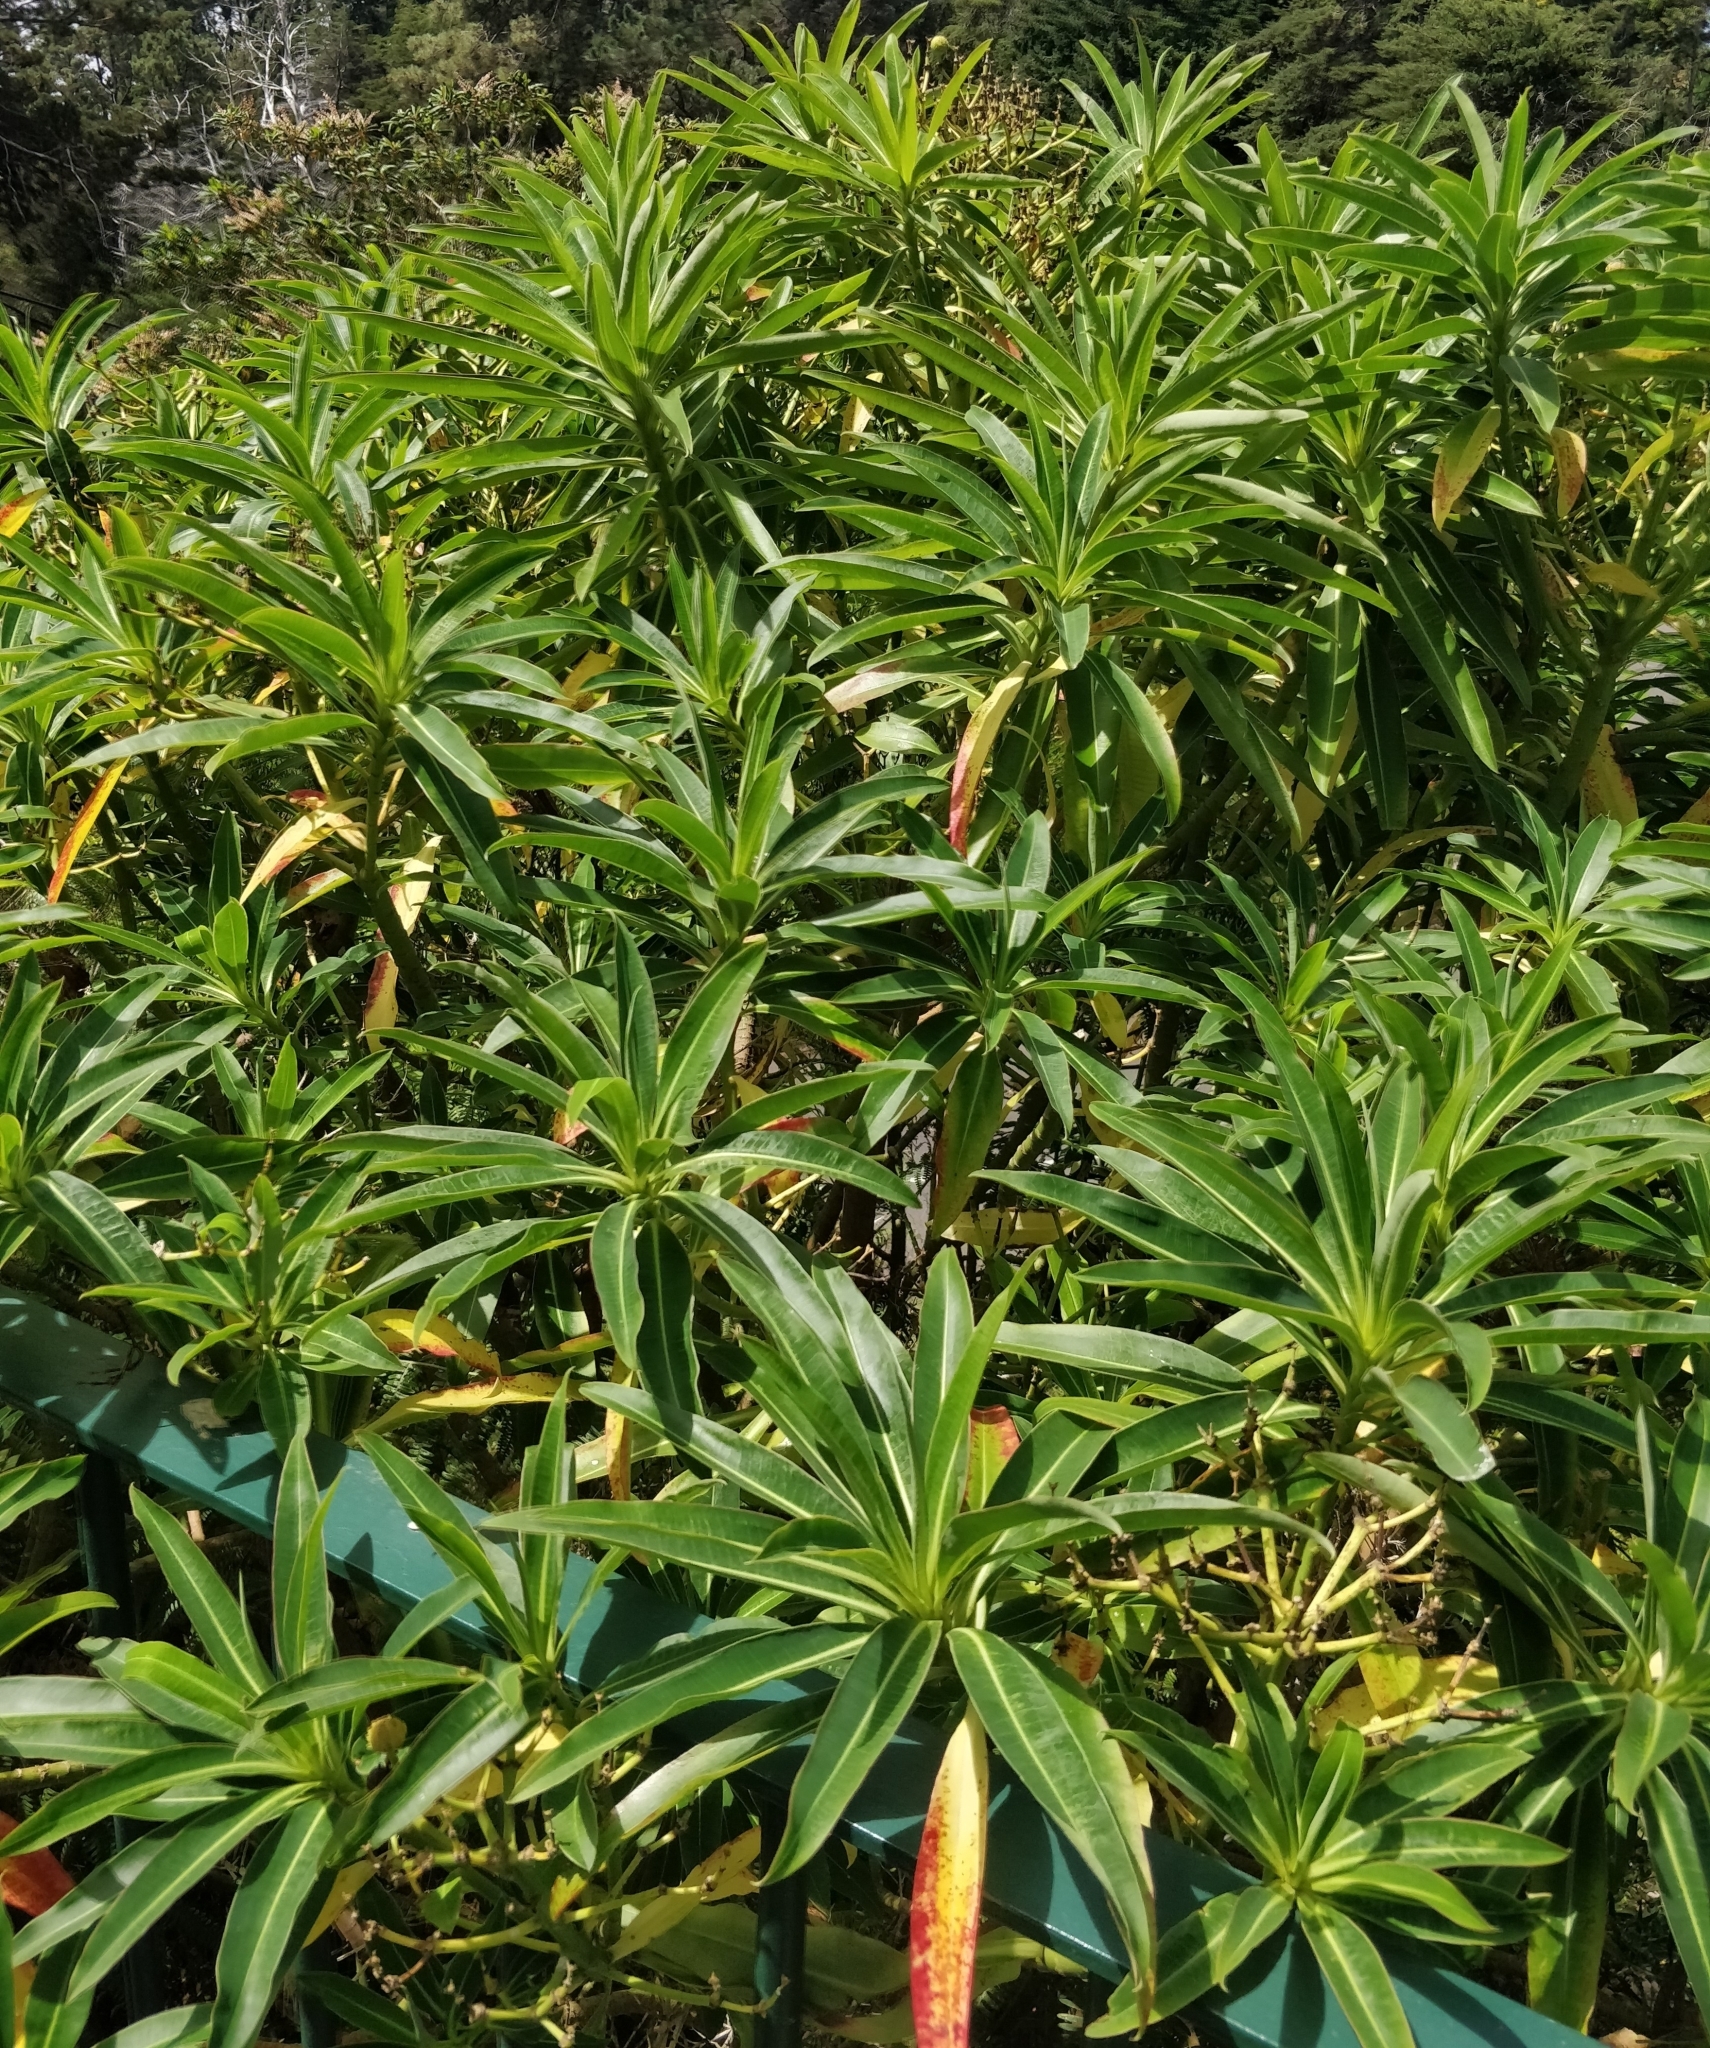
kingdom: Plantae
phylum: Tracheophyta
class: Magnoliopsida
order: Malpighiales
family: Euphorbiaceae
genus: Euphorbia
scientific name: Euphorbia mellifera
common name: Canary spurge
